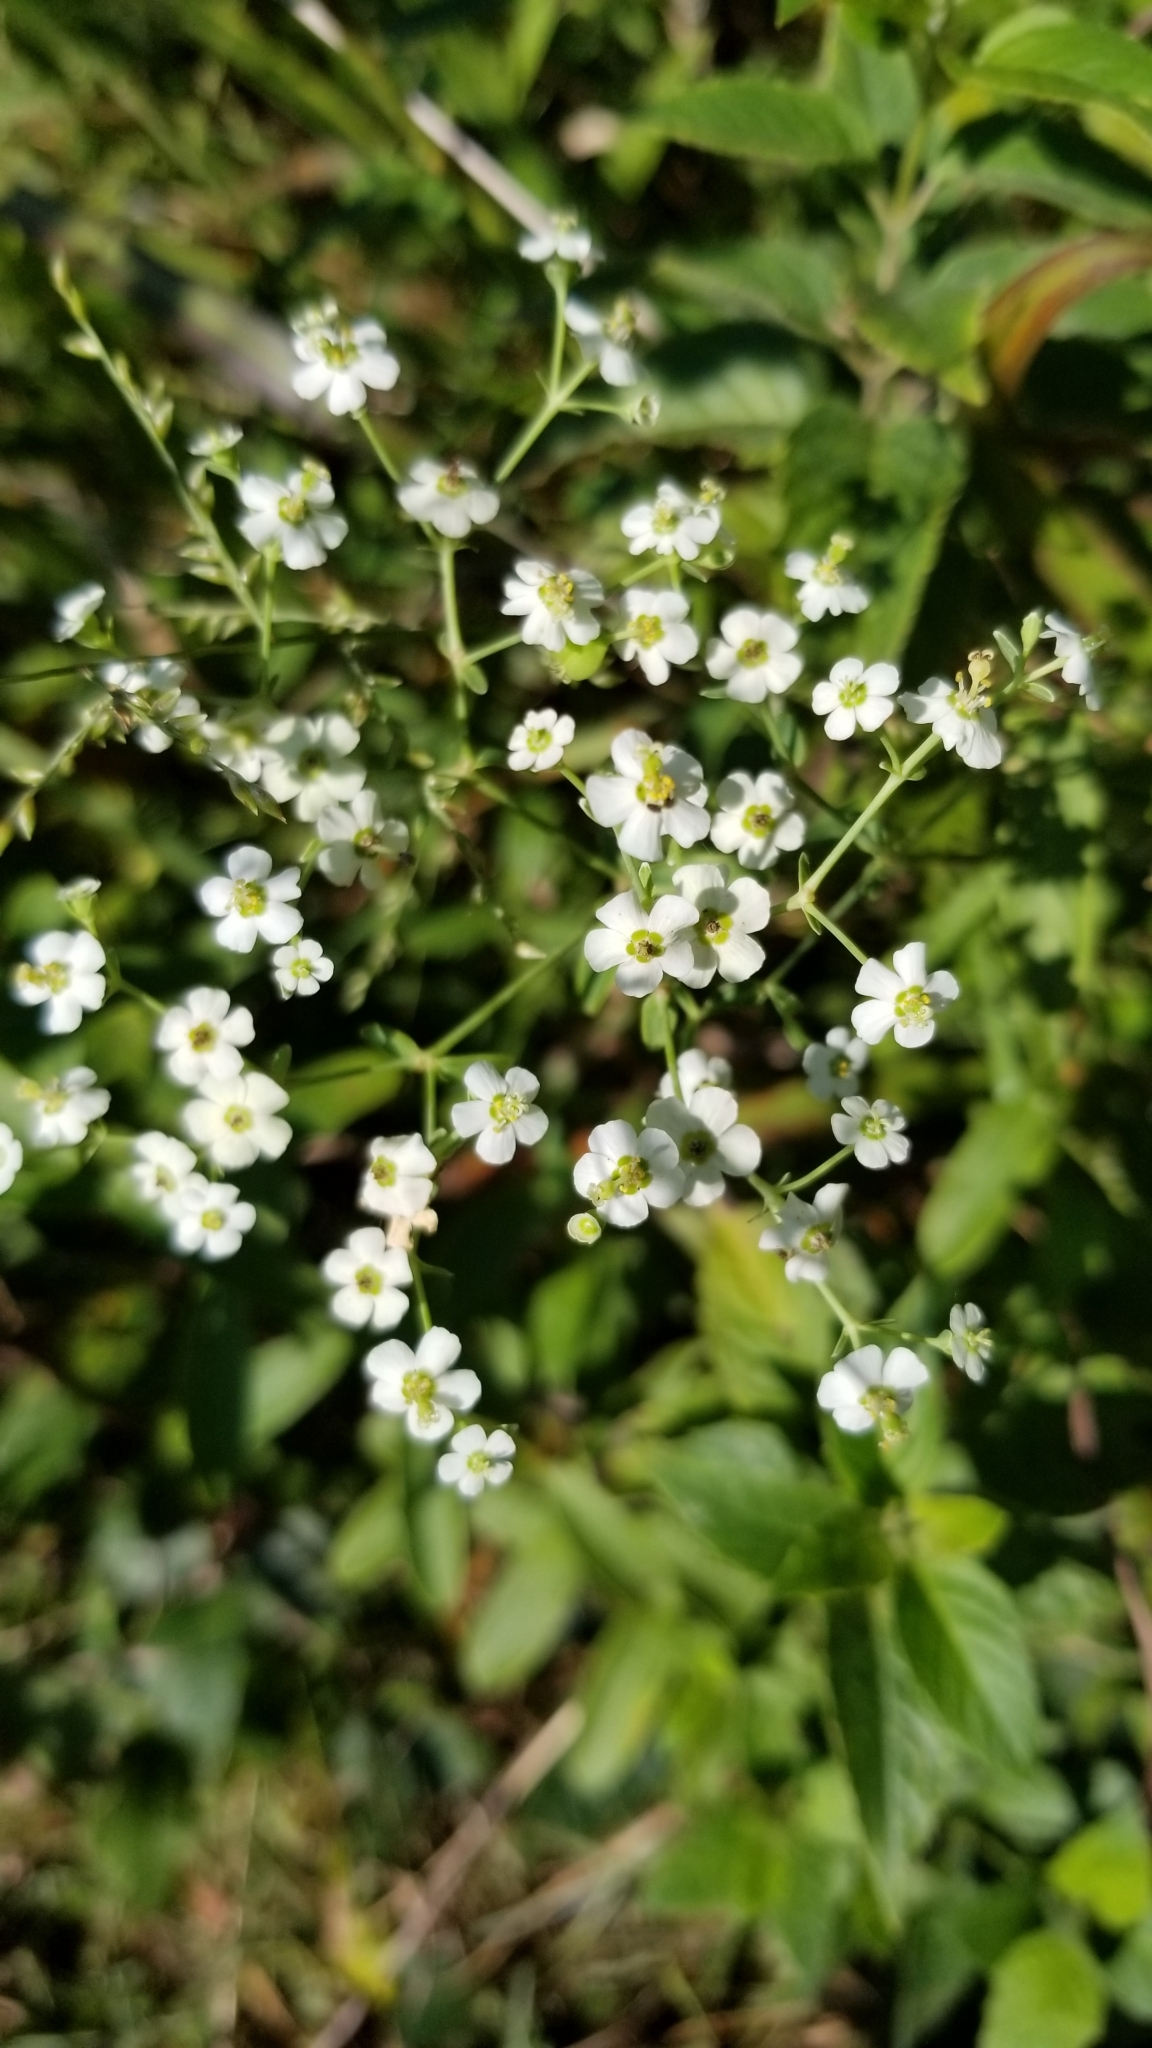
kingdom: Plantae
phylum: Tracheophyta
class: Magnoliopsida
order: Malpighiales
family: Euphorbiaceae
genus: Euphorbia
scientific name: Euphorbia corollata
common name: Flowering spurge
